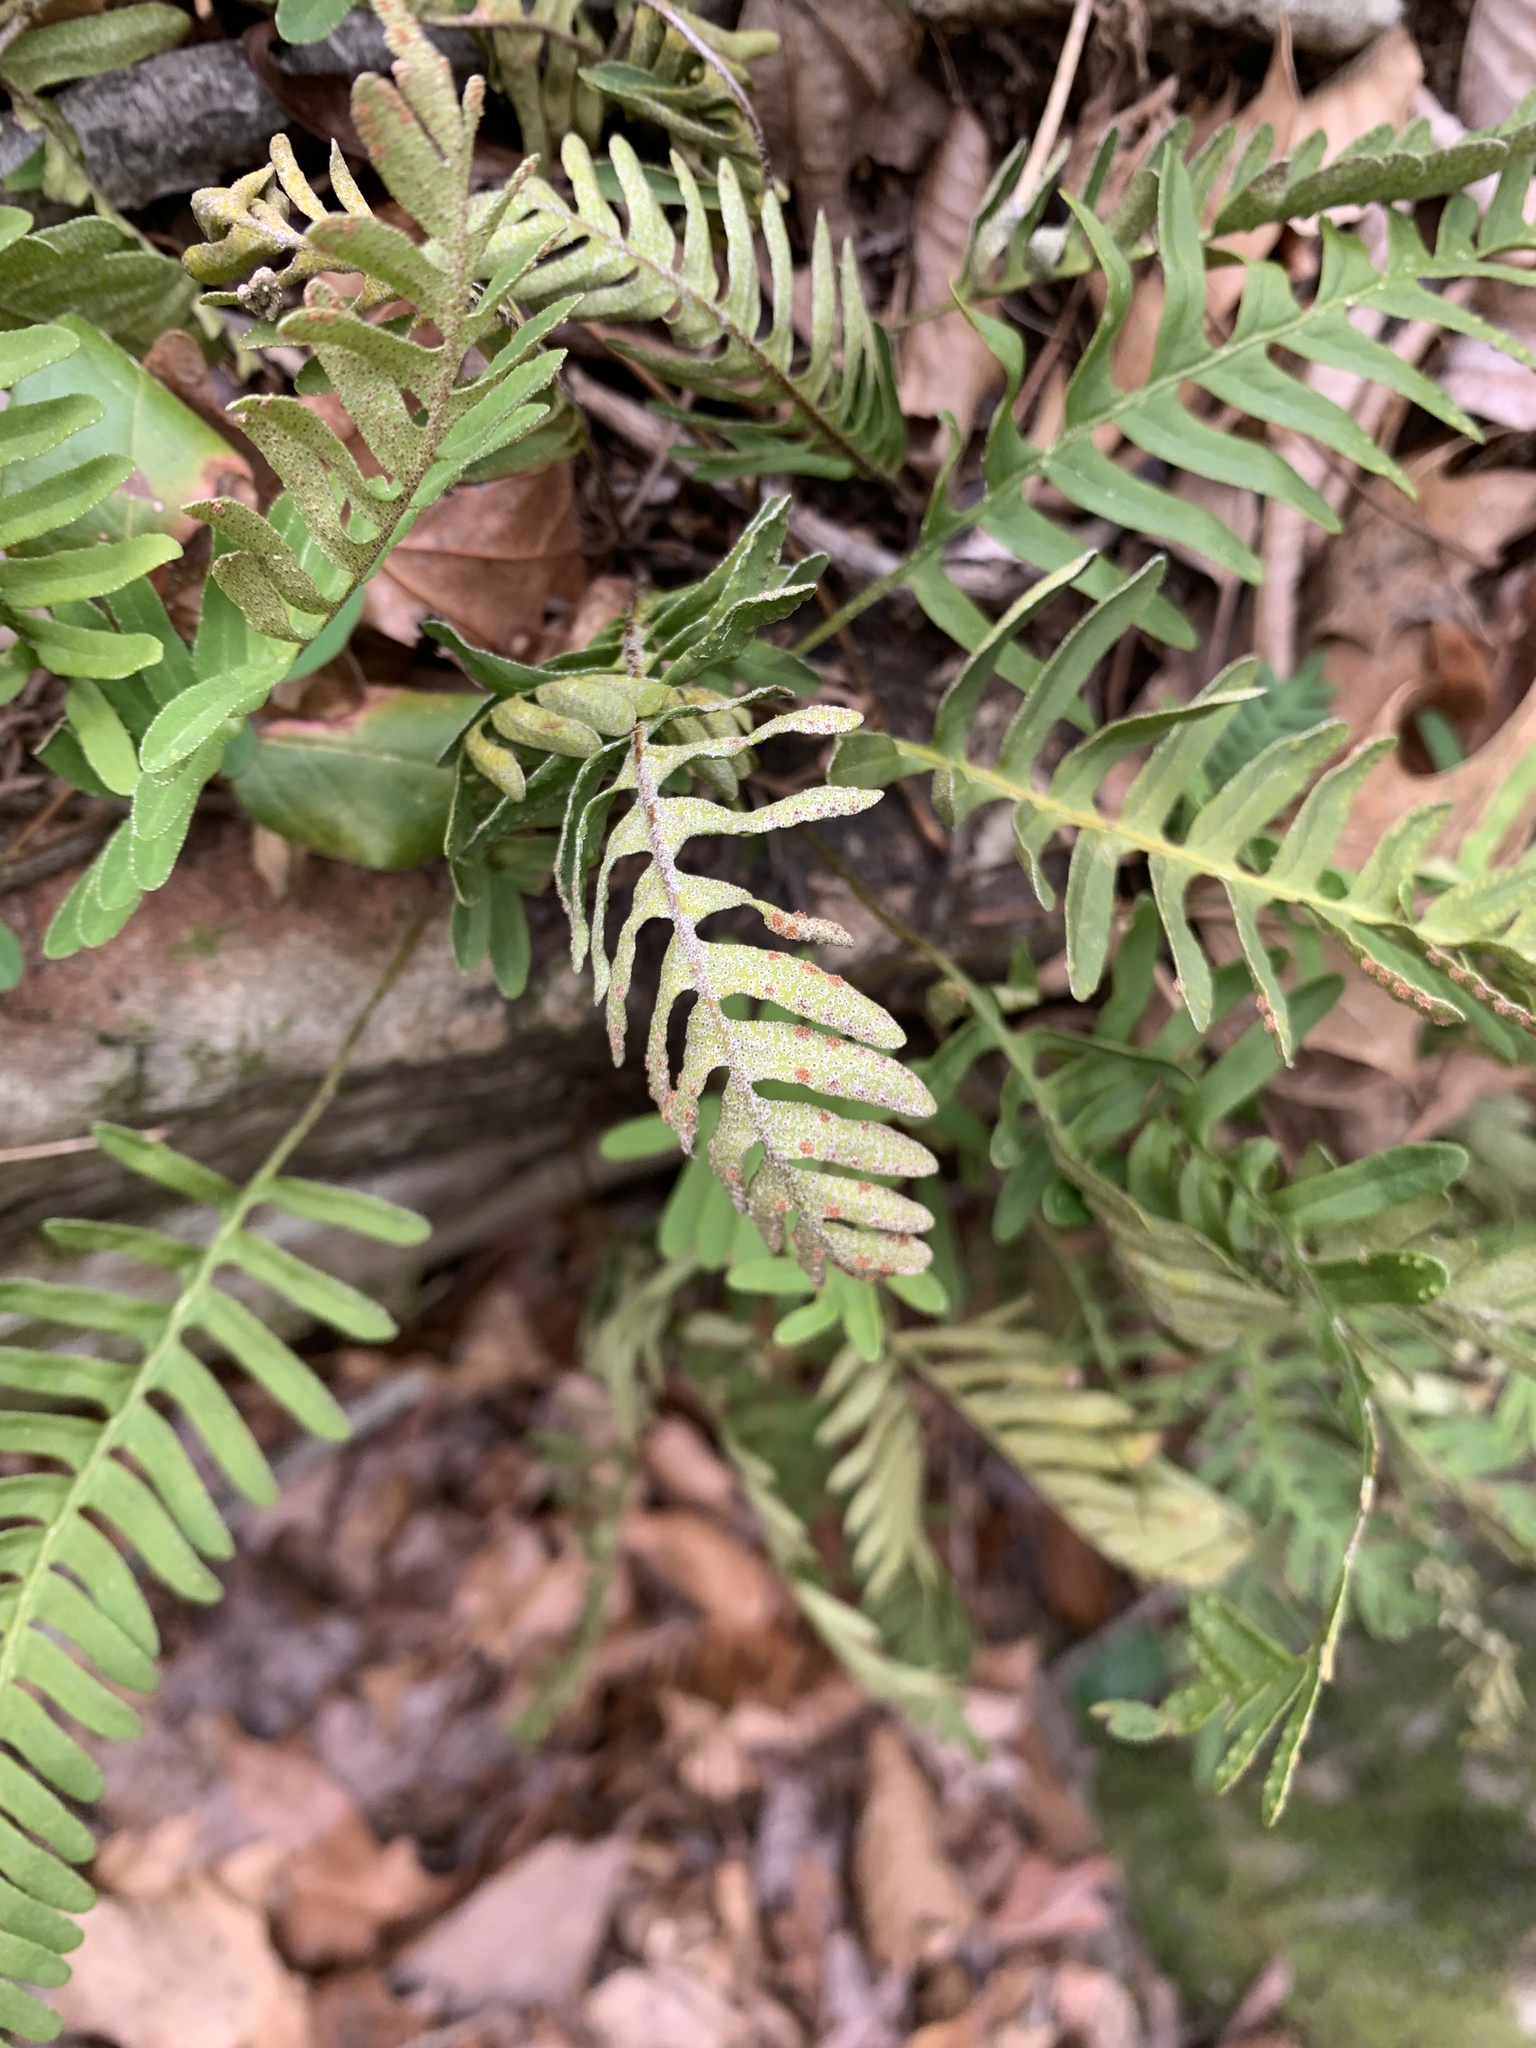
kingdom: Plantae
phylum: Tracheophyta
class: Polypodiopsida
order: Polypodiales
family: Polypodiaceae
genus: Pleopeltis
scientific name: Pleopeltis michauxiana
